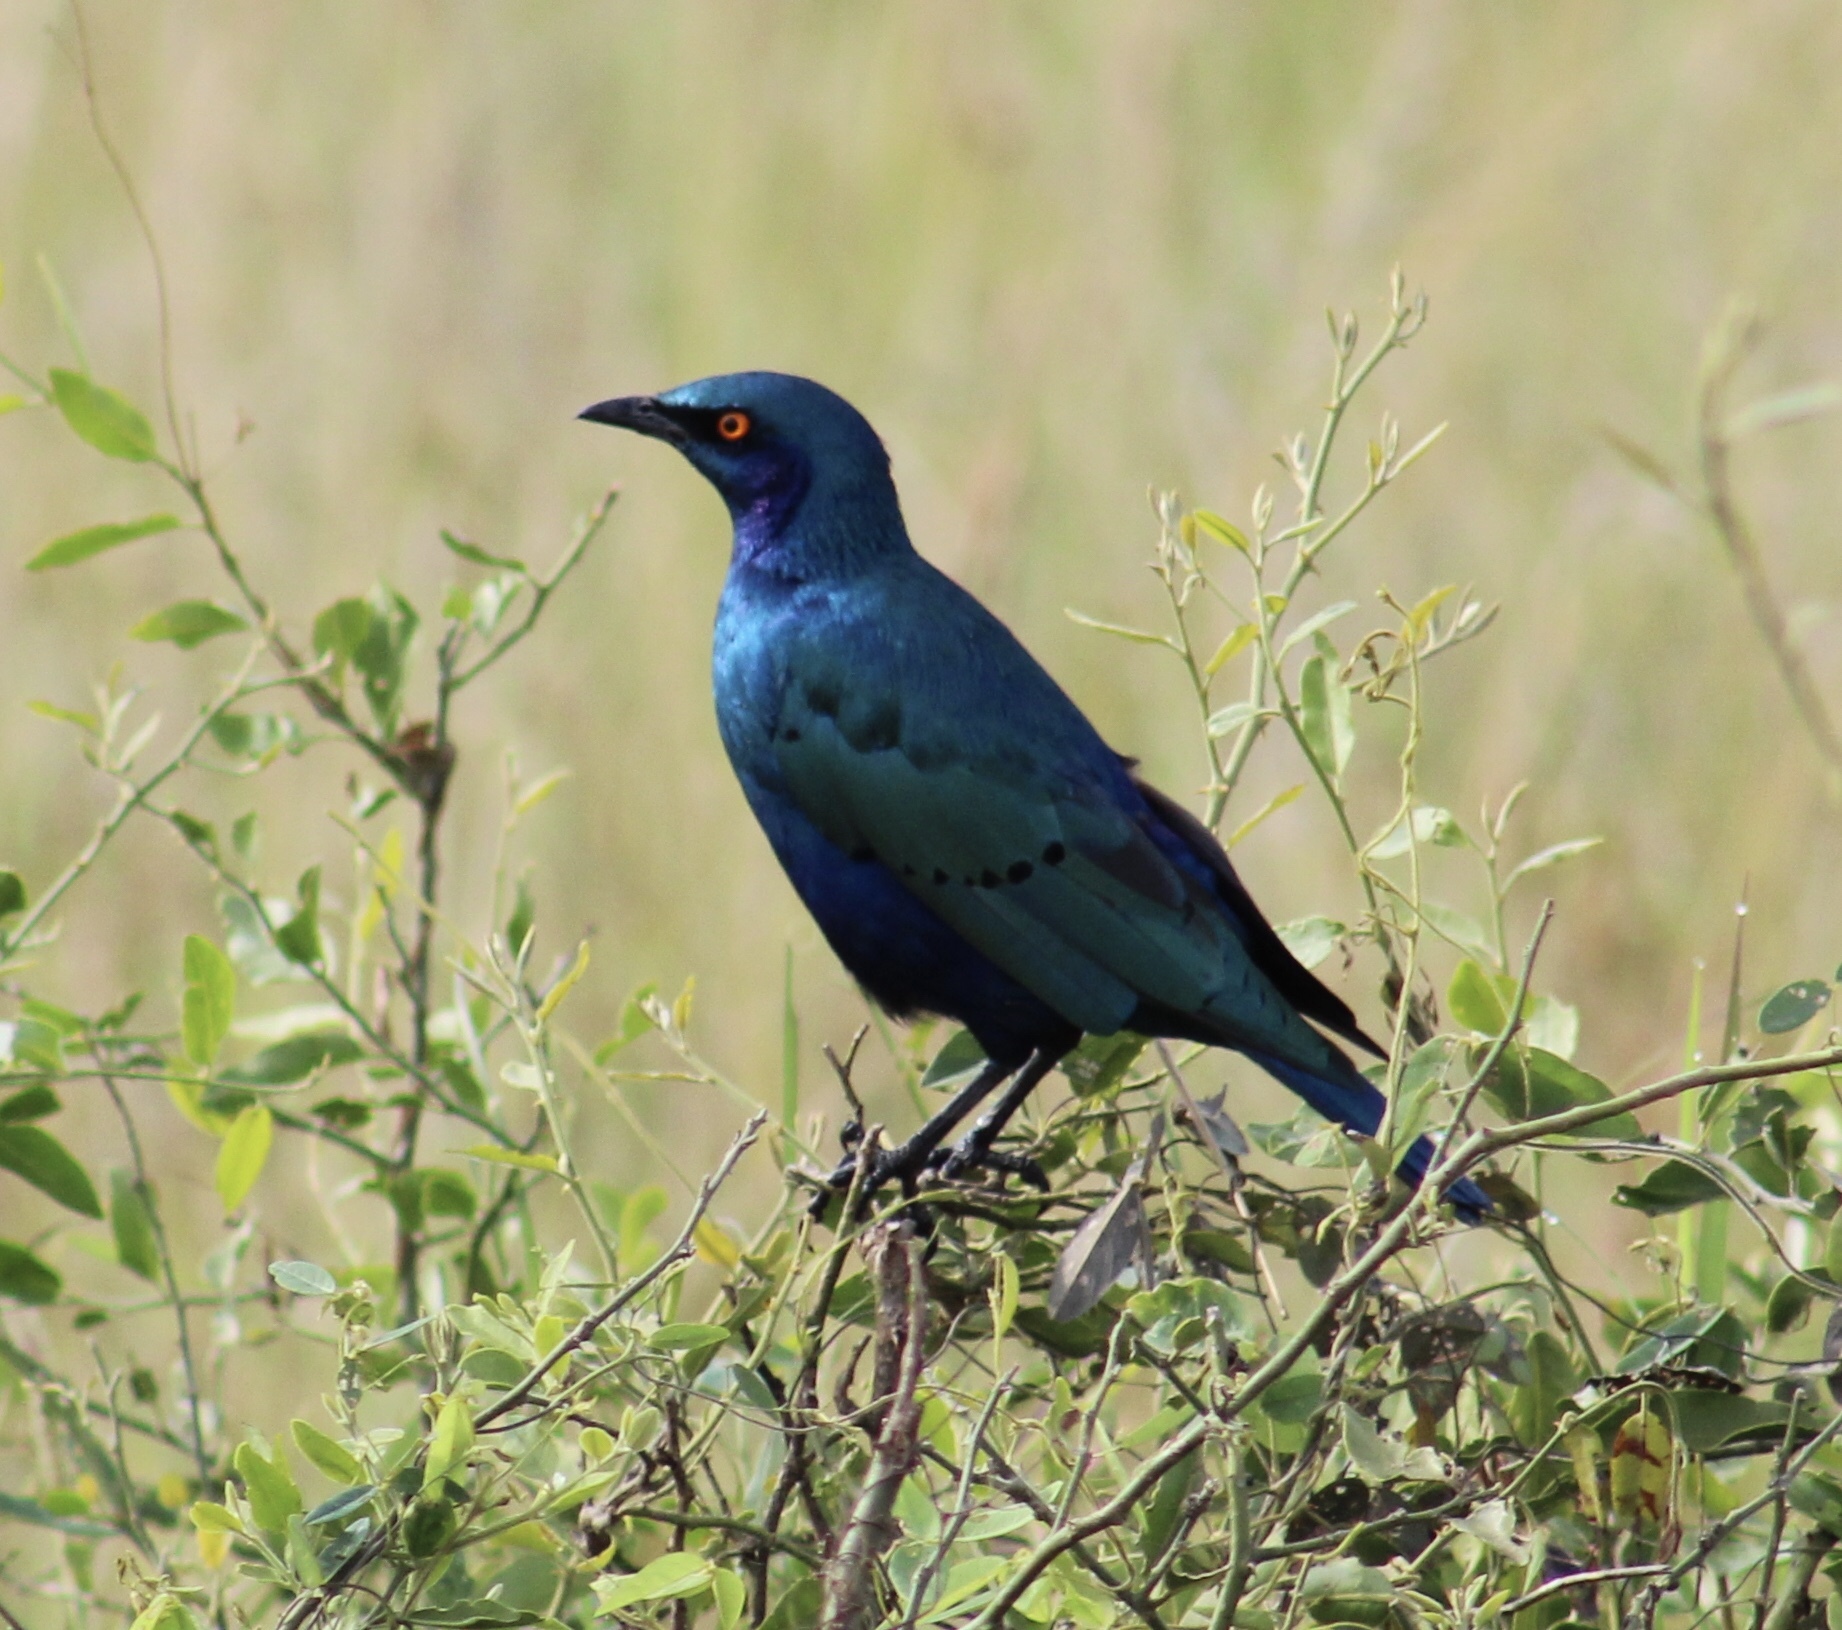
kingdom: Animalia
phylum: Chordata
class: Aves
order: Passeriformes
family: Sturnidae
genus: Lamprotornis
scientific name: Lamprotornis chalybaeus
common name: Greater blue-eared starling
